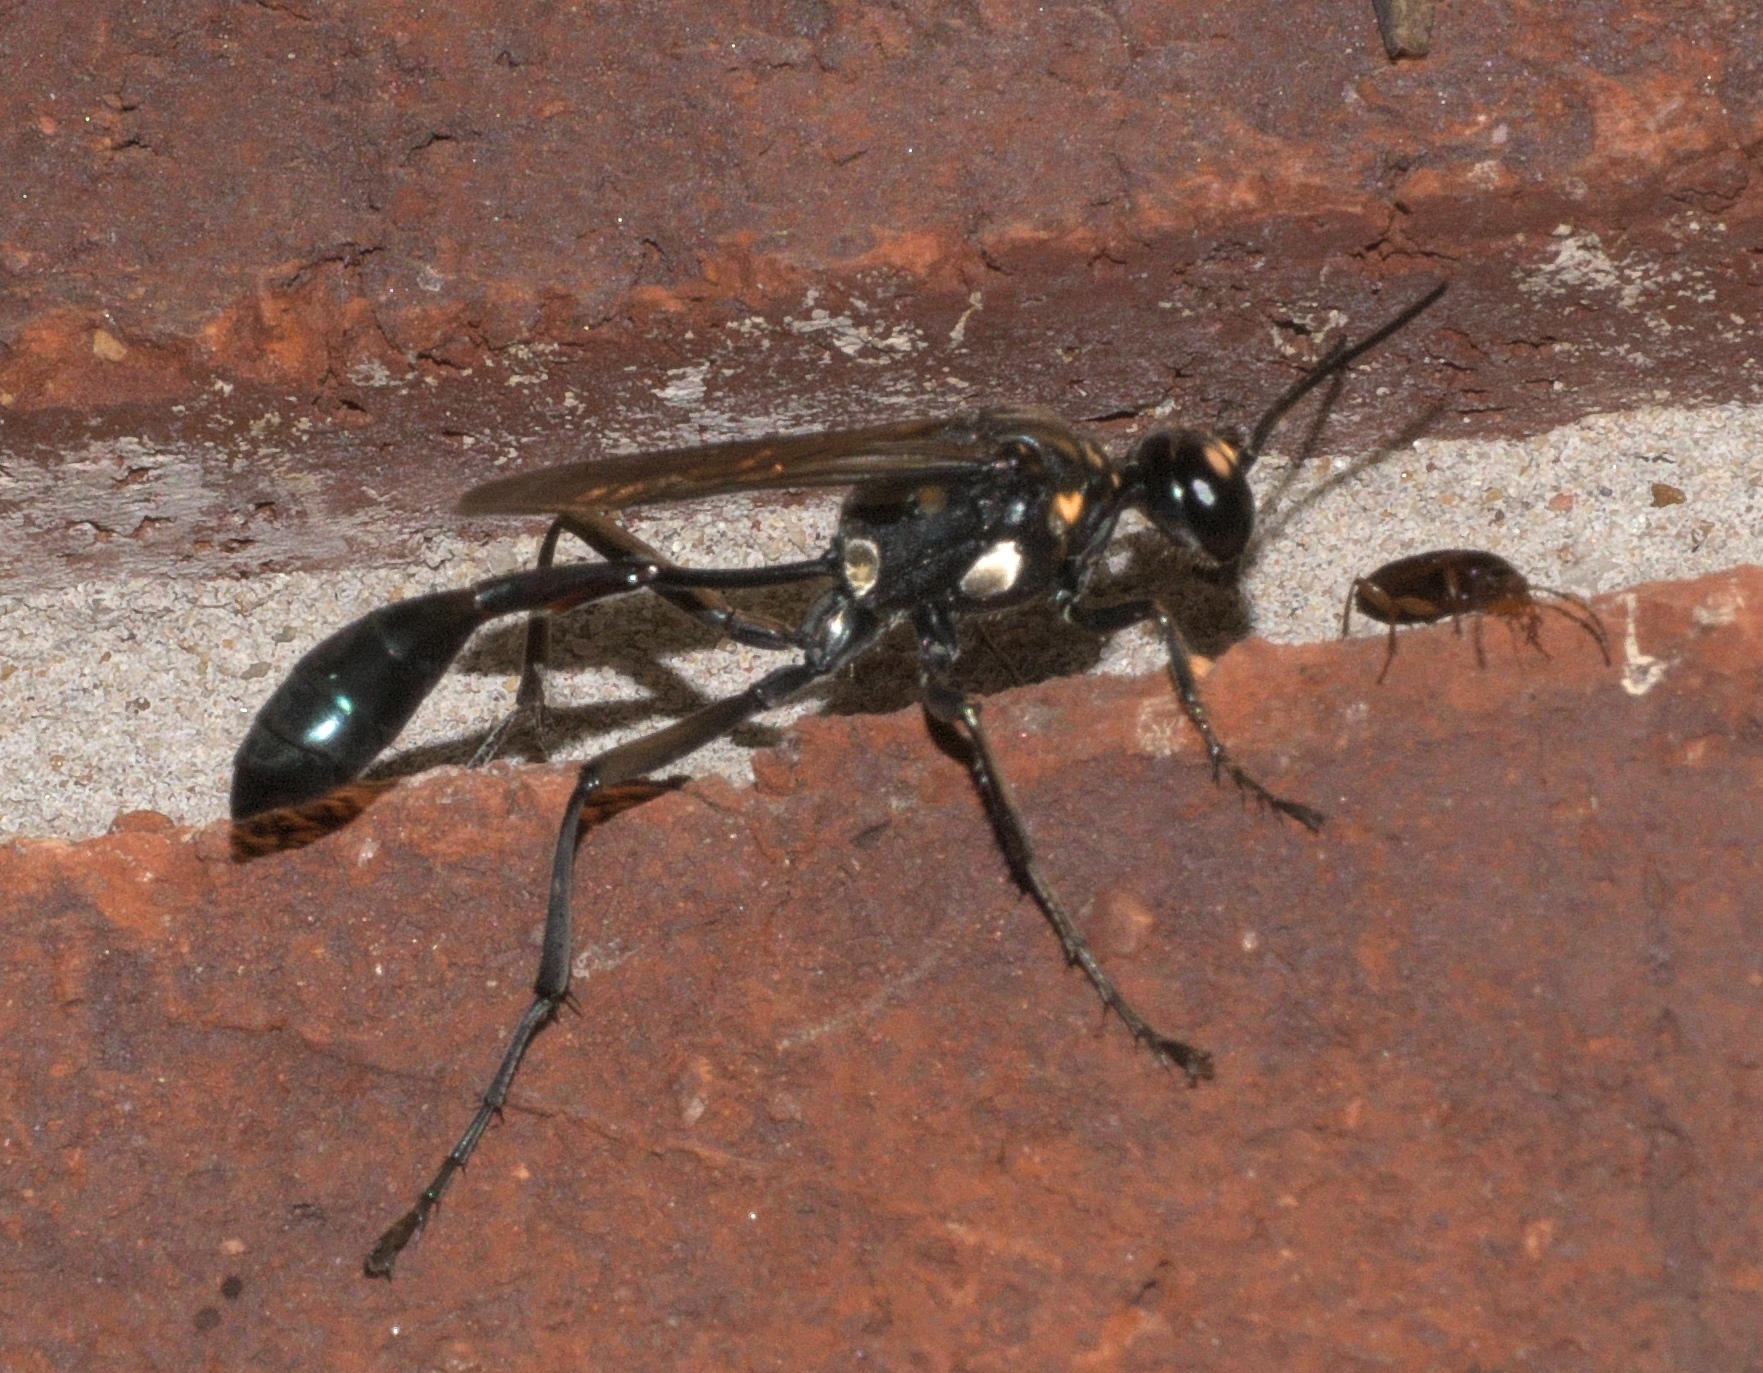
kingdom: Animalia
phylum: Arthropoda
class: Insecta
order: Hymenoptera
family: Sphecidae
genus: Eremnophila
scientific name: Eremnophila aureonotata
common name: Gold-marked thread-waisted wasp
